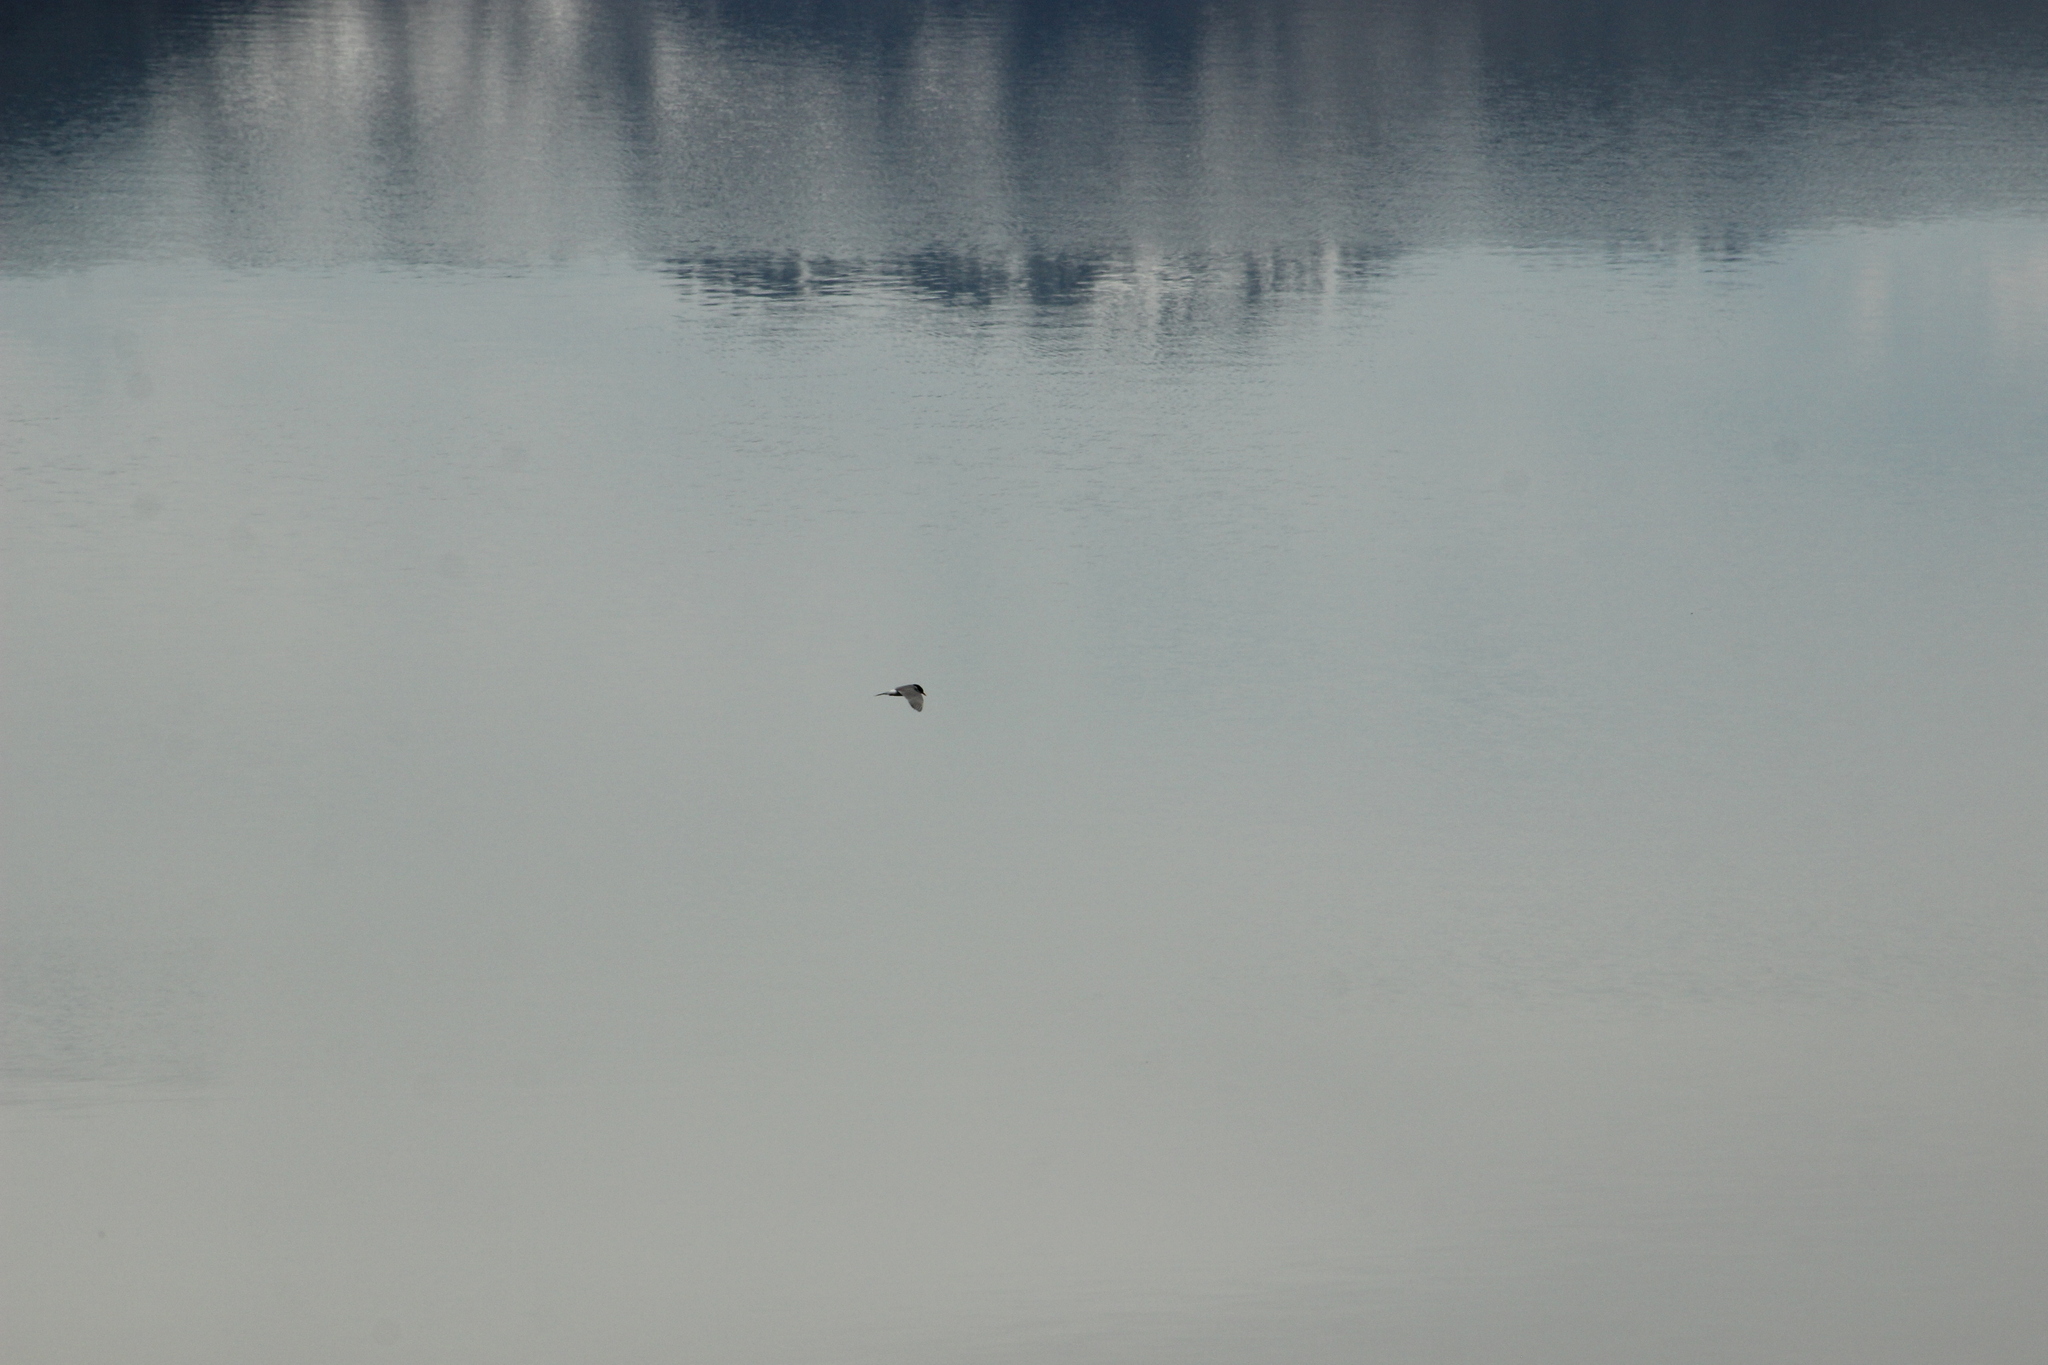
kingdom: Animalia
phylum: Chordata
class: Aves
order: Charadriiformes
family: Laridae
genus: Chlidonias
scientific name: Chlidonias albostriatus
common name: Black-fronted tern
